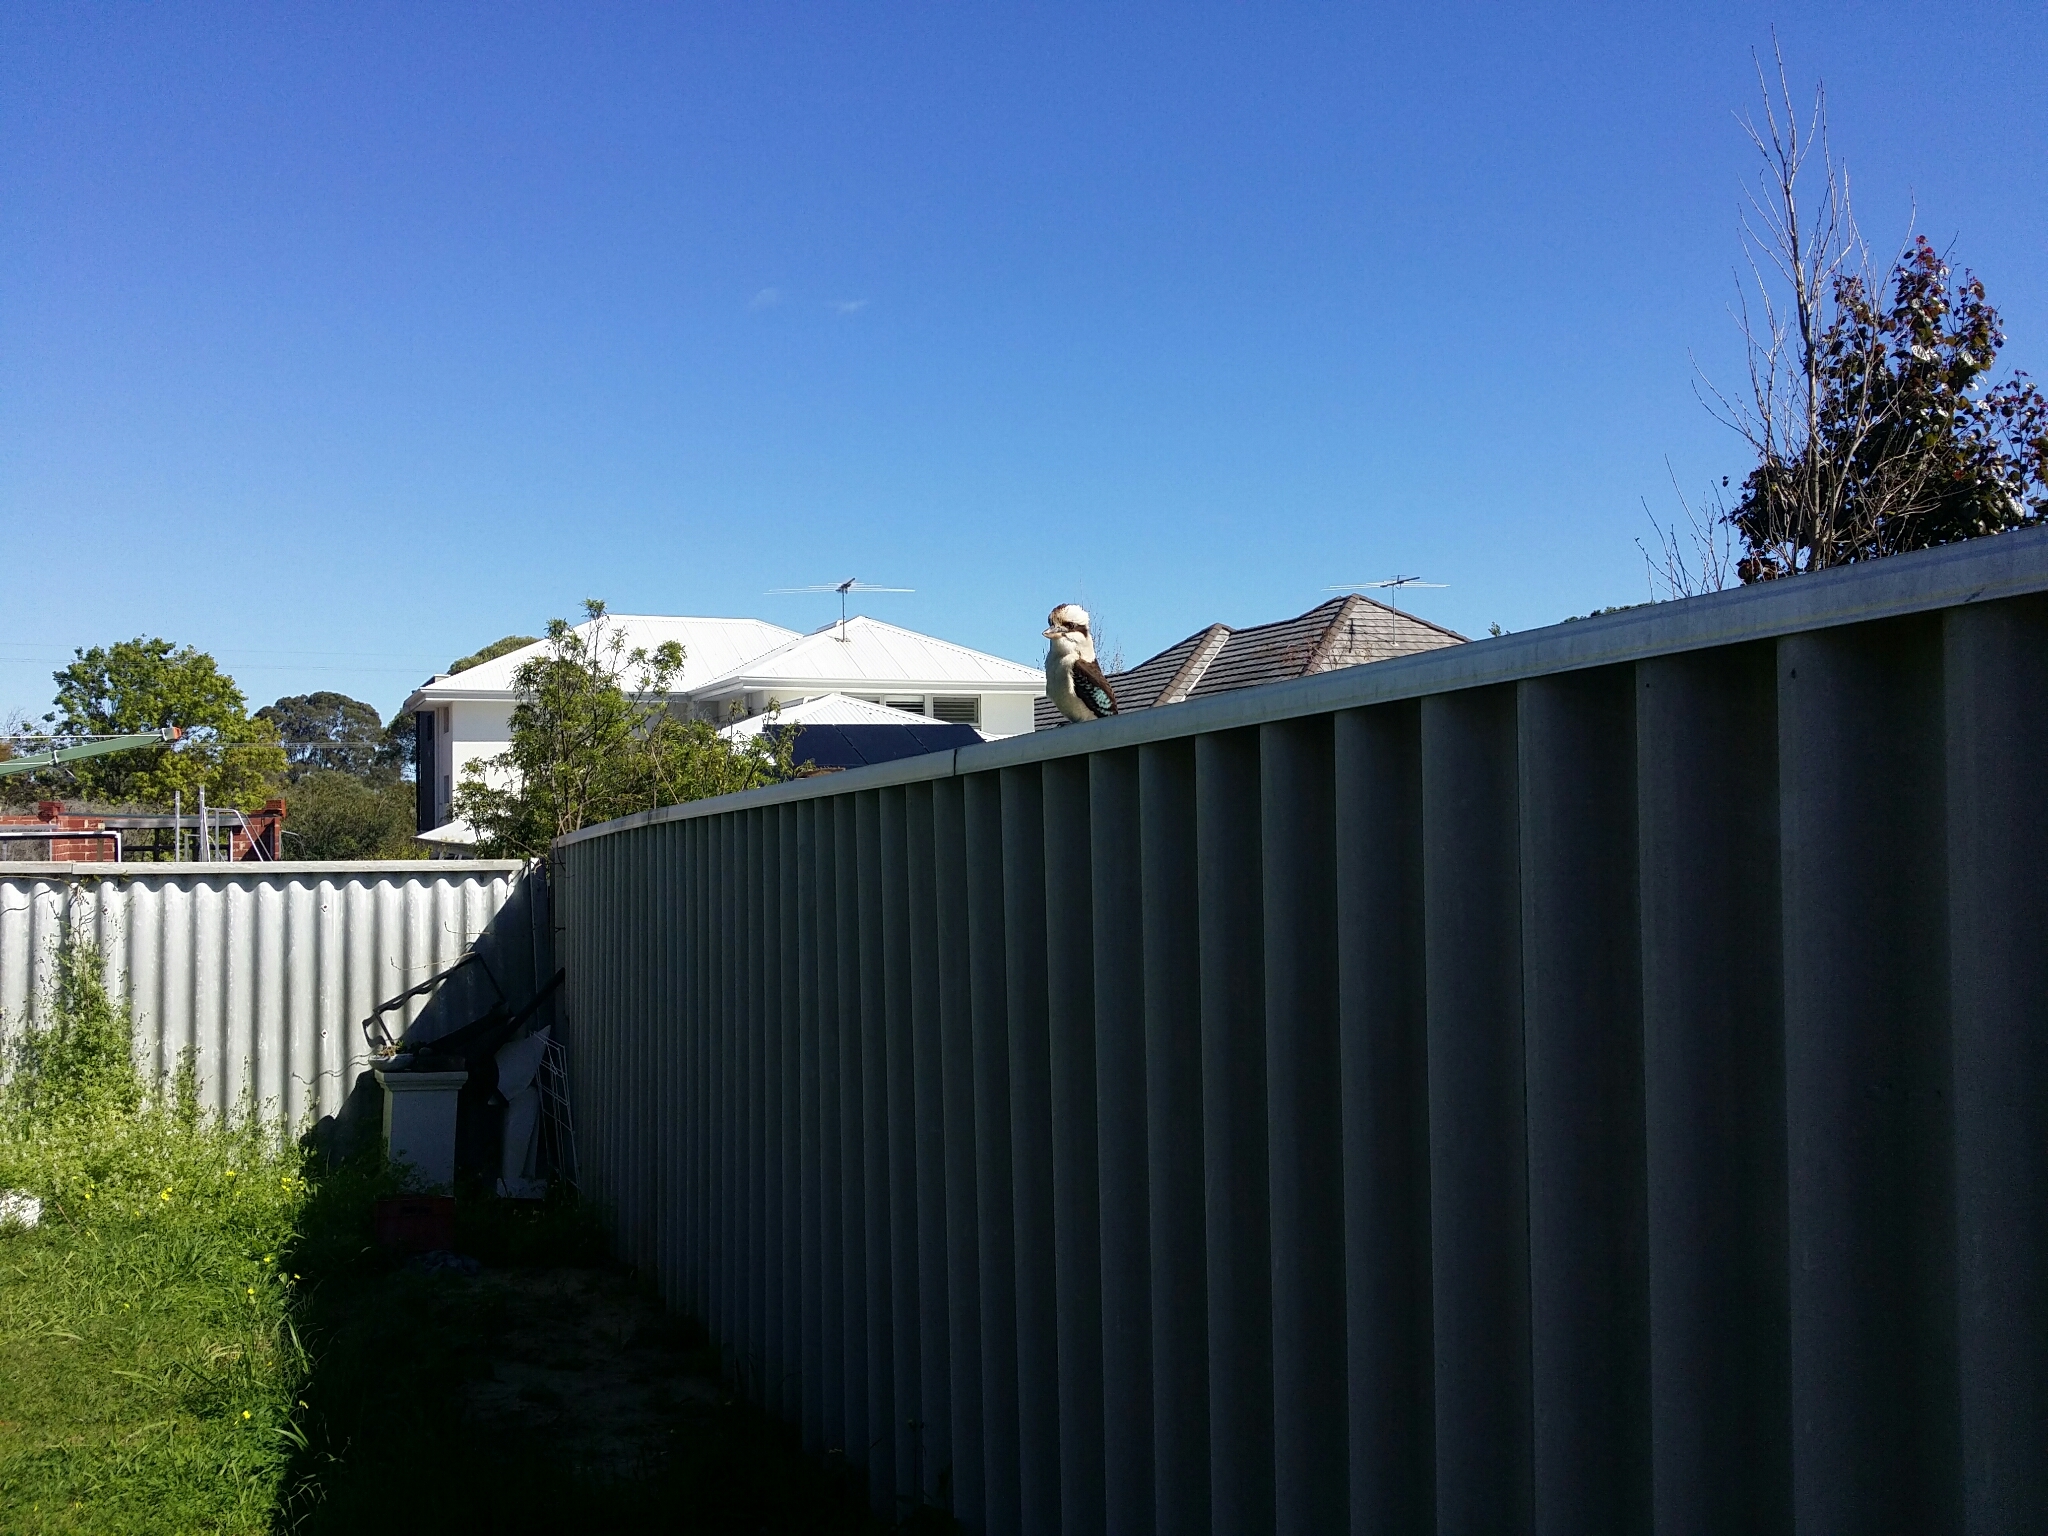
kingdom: Animalia
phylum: Chordata
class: Aves
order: Coraciiformes
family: Alcedinidae
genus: Dacelo
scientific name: Dacelo novaeguineae
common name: Laughing kookaburra
